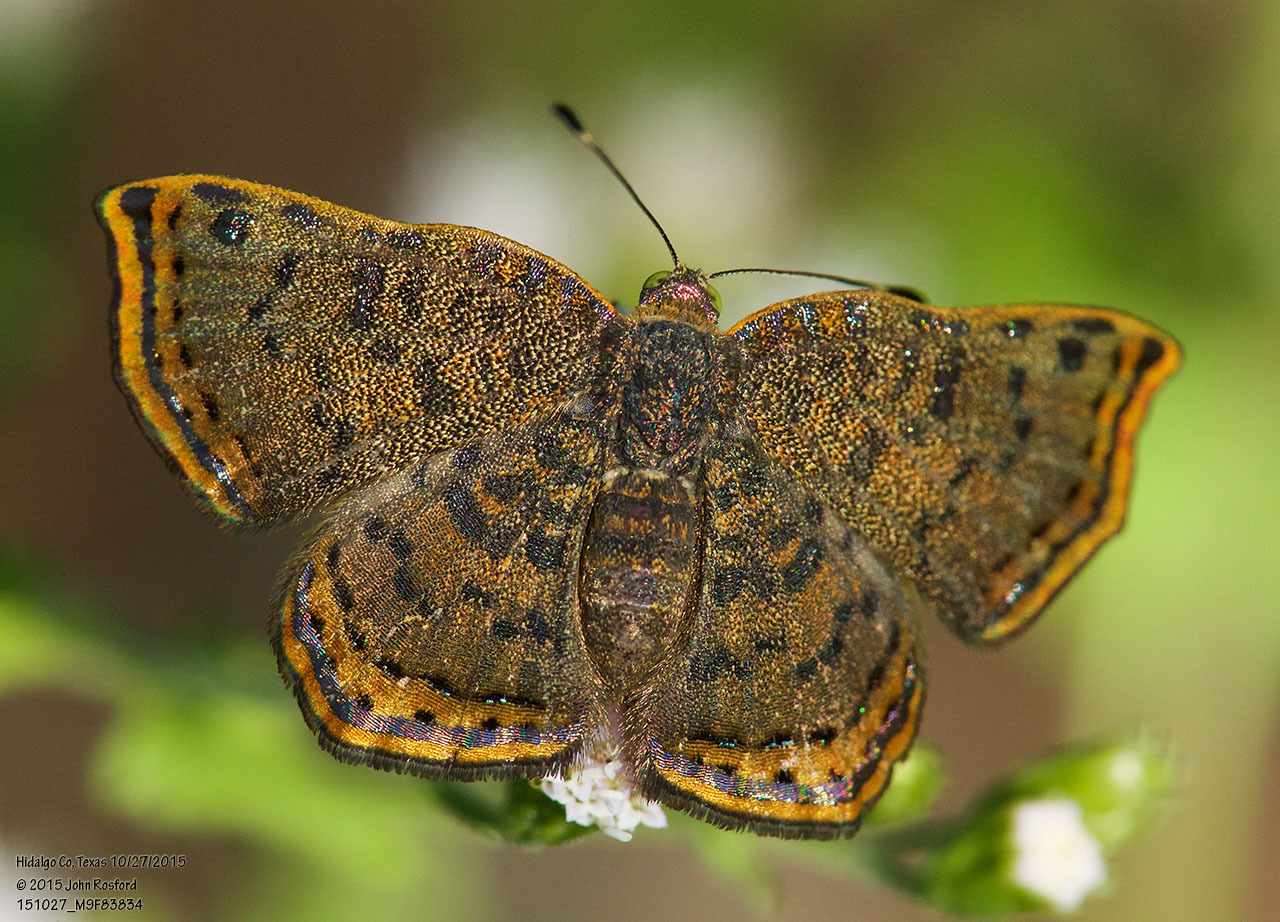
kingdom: Animalia
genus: Caria
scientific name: Caria ino
